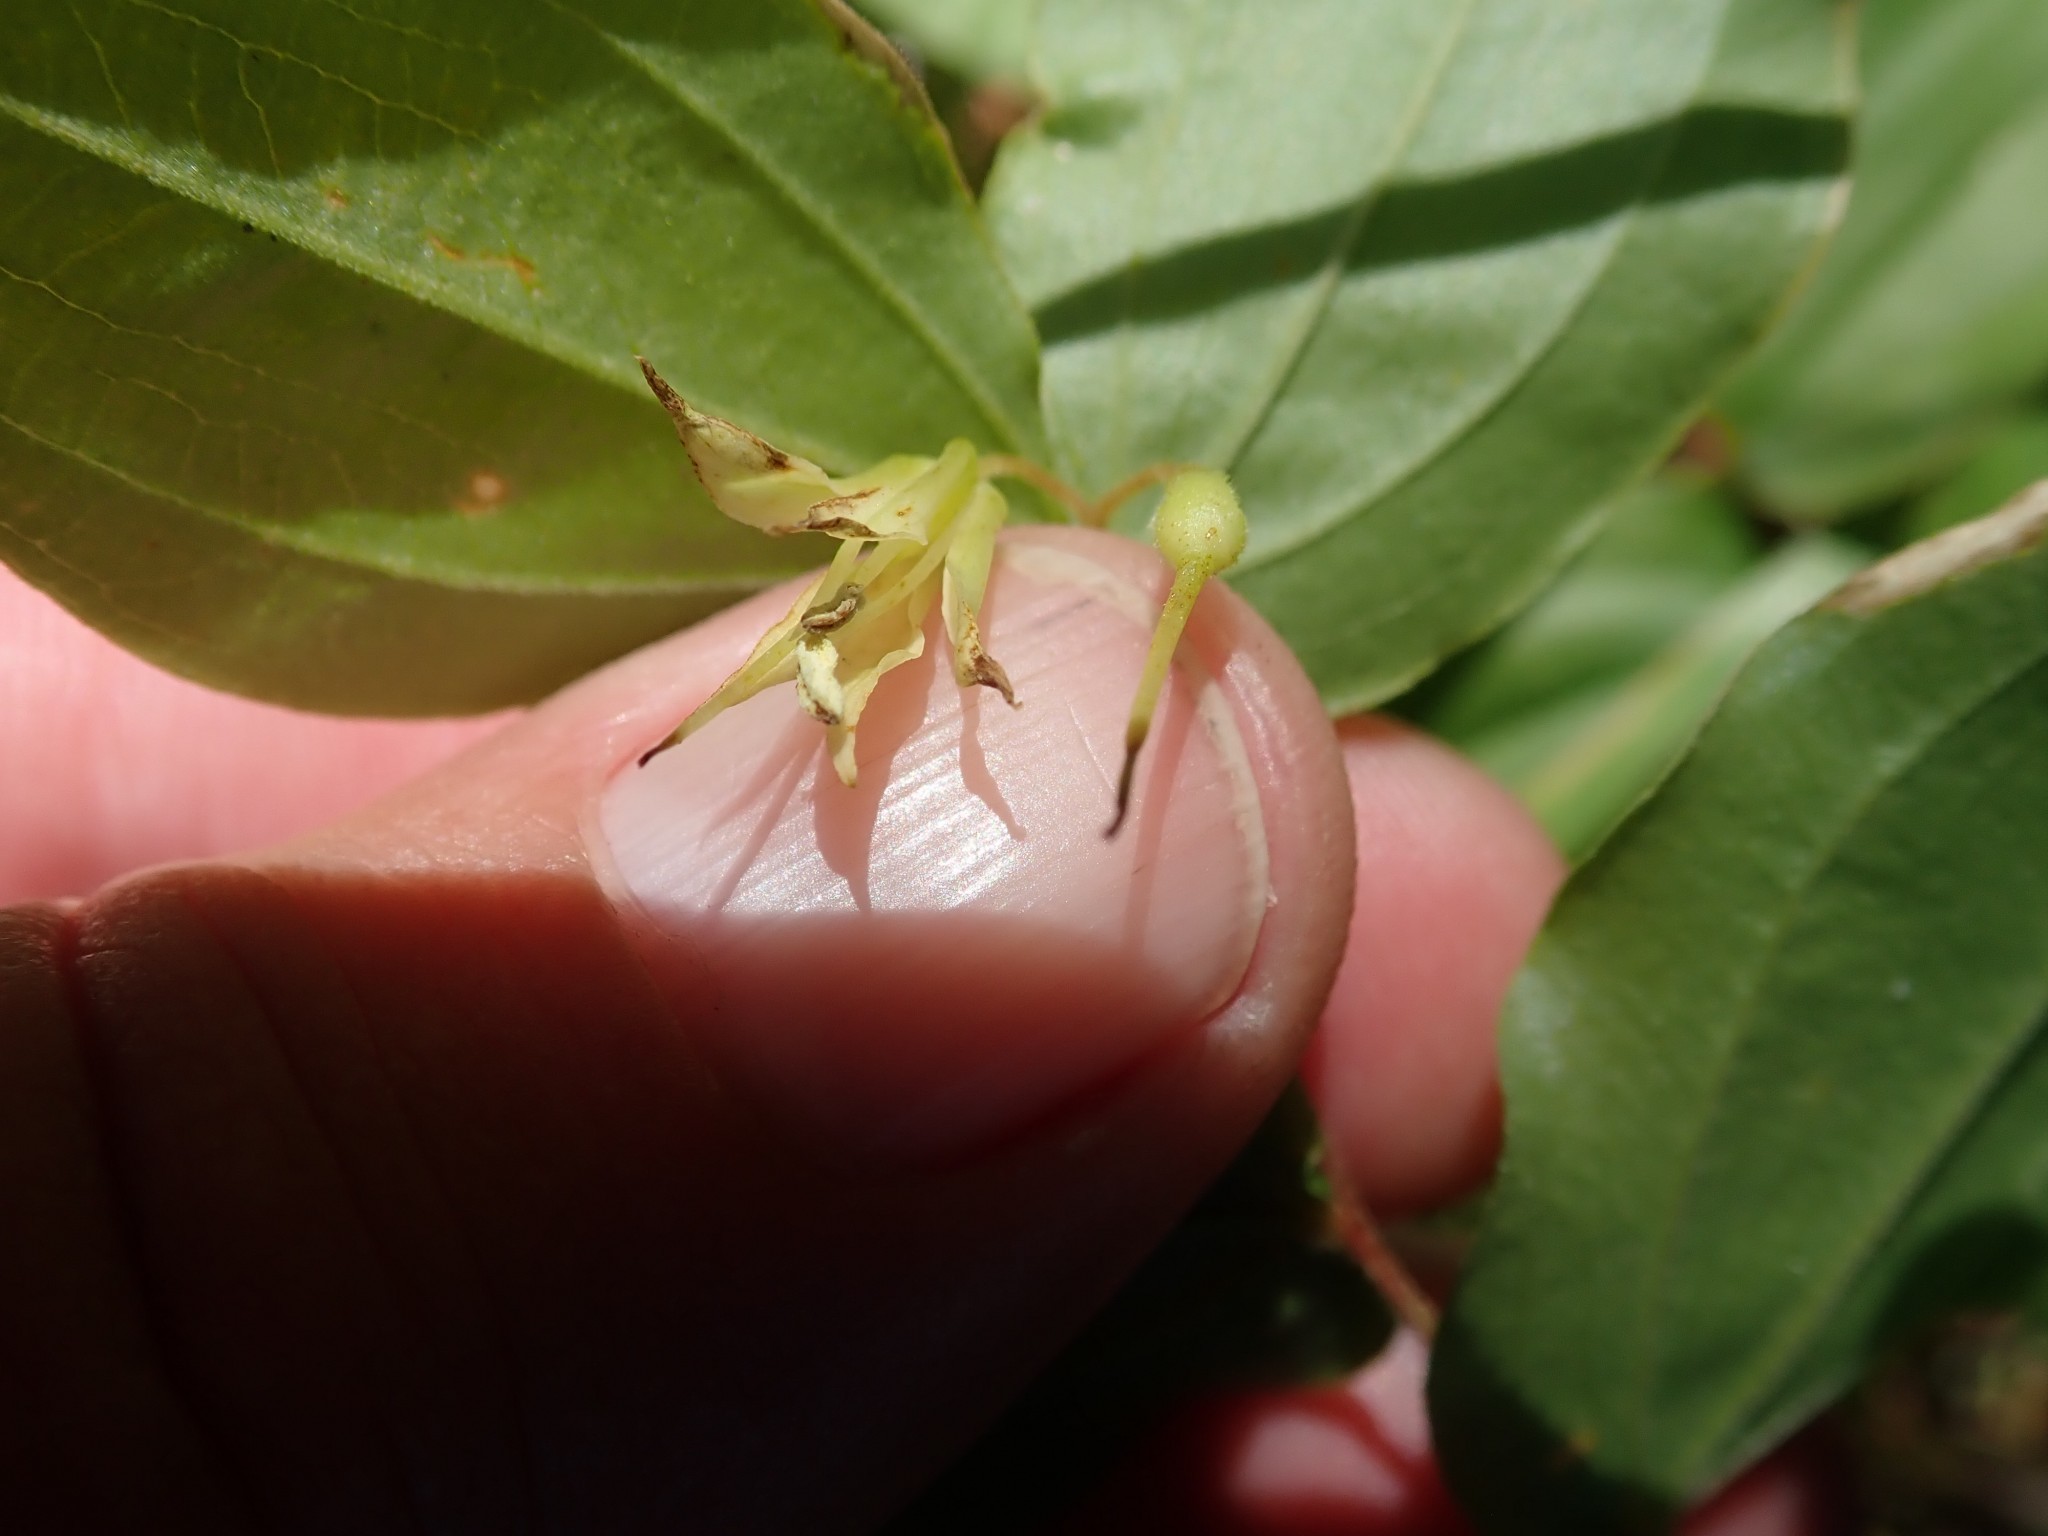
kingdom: Plantae
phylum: Tracheophyta
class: Liliopsida
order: Liliales
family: Liliaceae
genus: Prosartes
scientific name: Prosartes hookeri
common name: Fairy-bells
